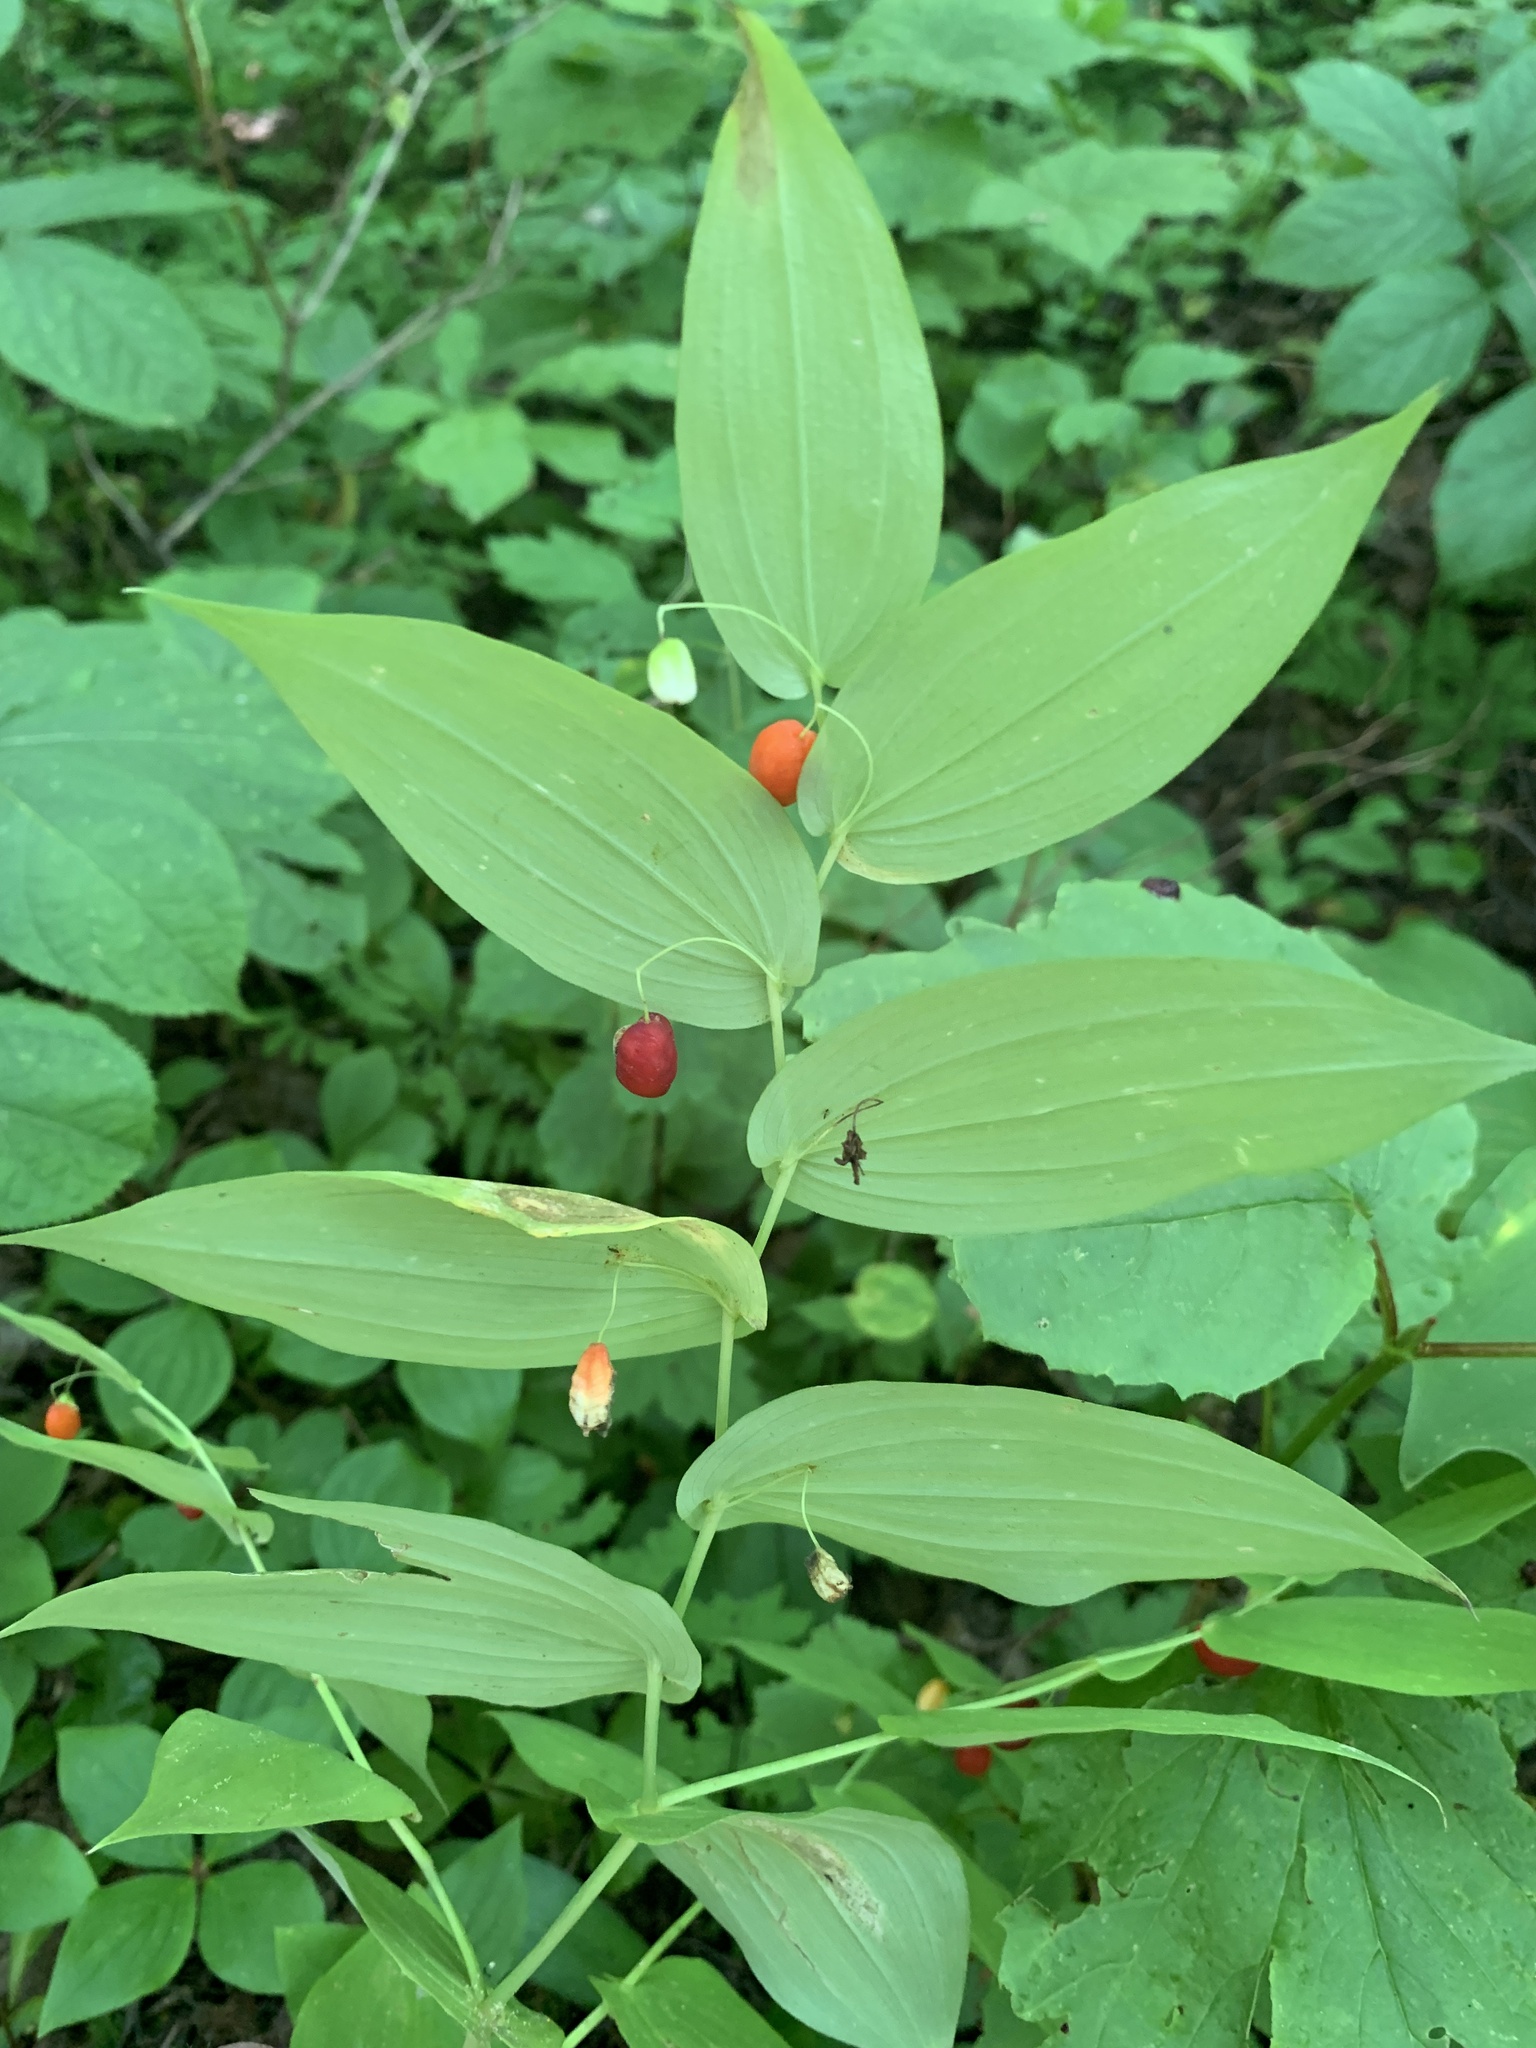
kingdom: Plantae
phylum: Tracheophyta
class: Liliopsida
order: Liliales
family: Liliaceae
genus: Streptopus
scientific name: Streptopus amplexifolius
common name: Clasp twisted stalk
